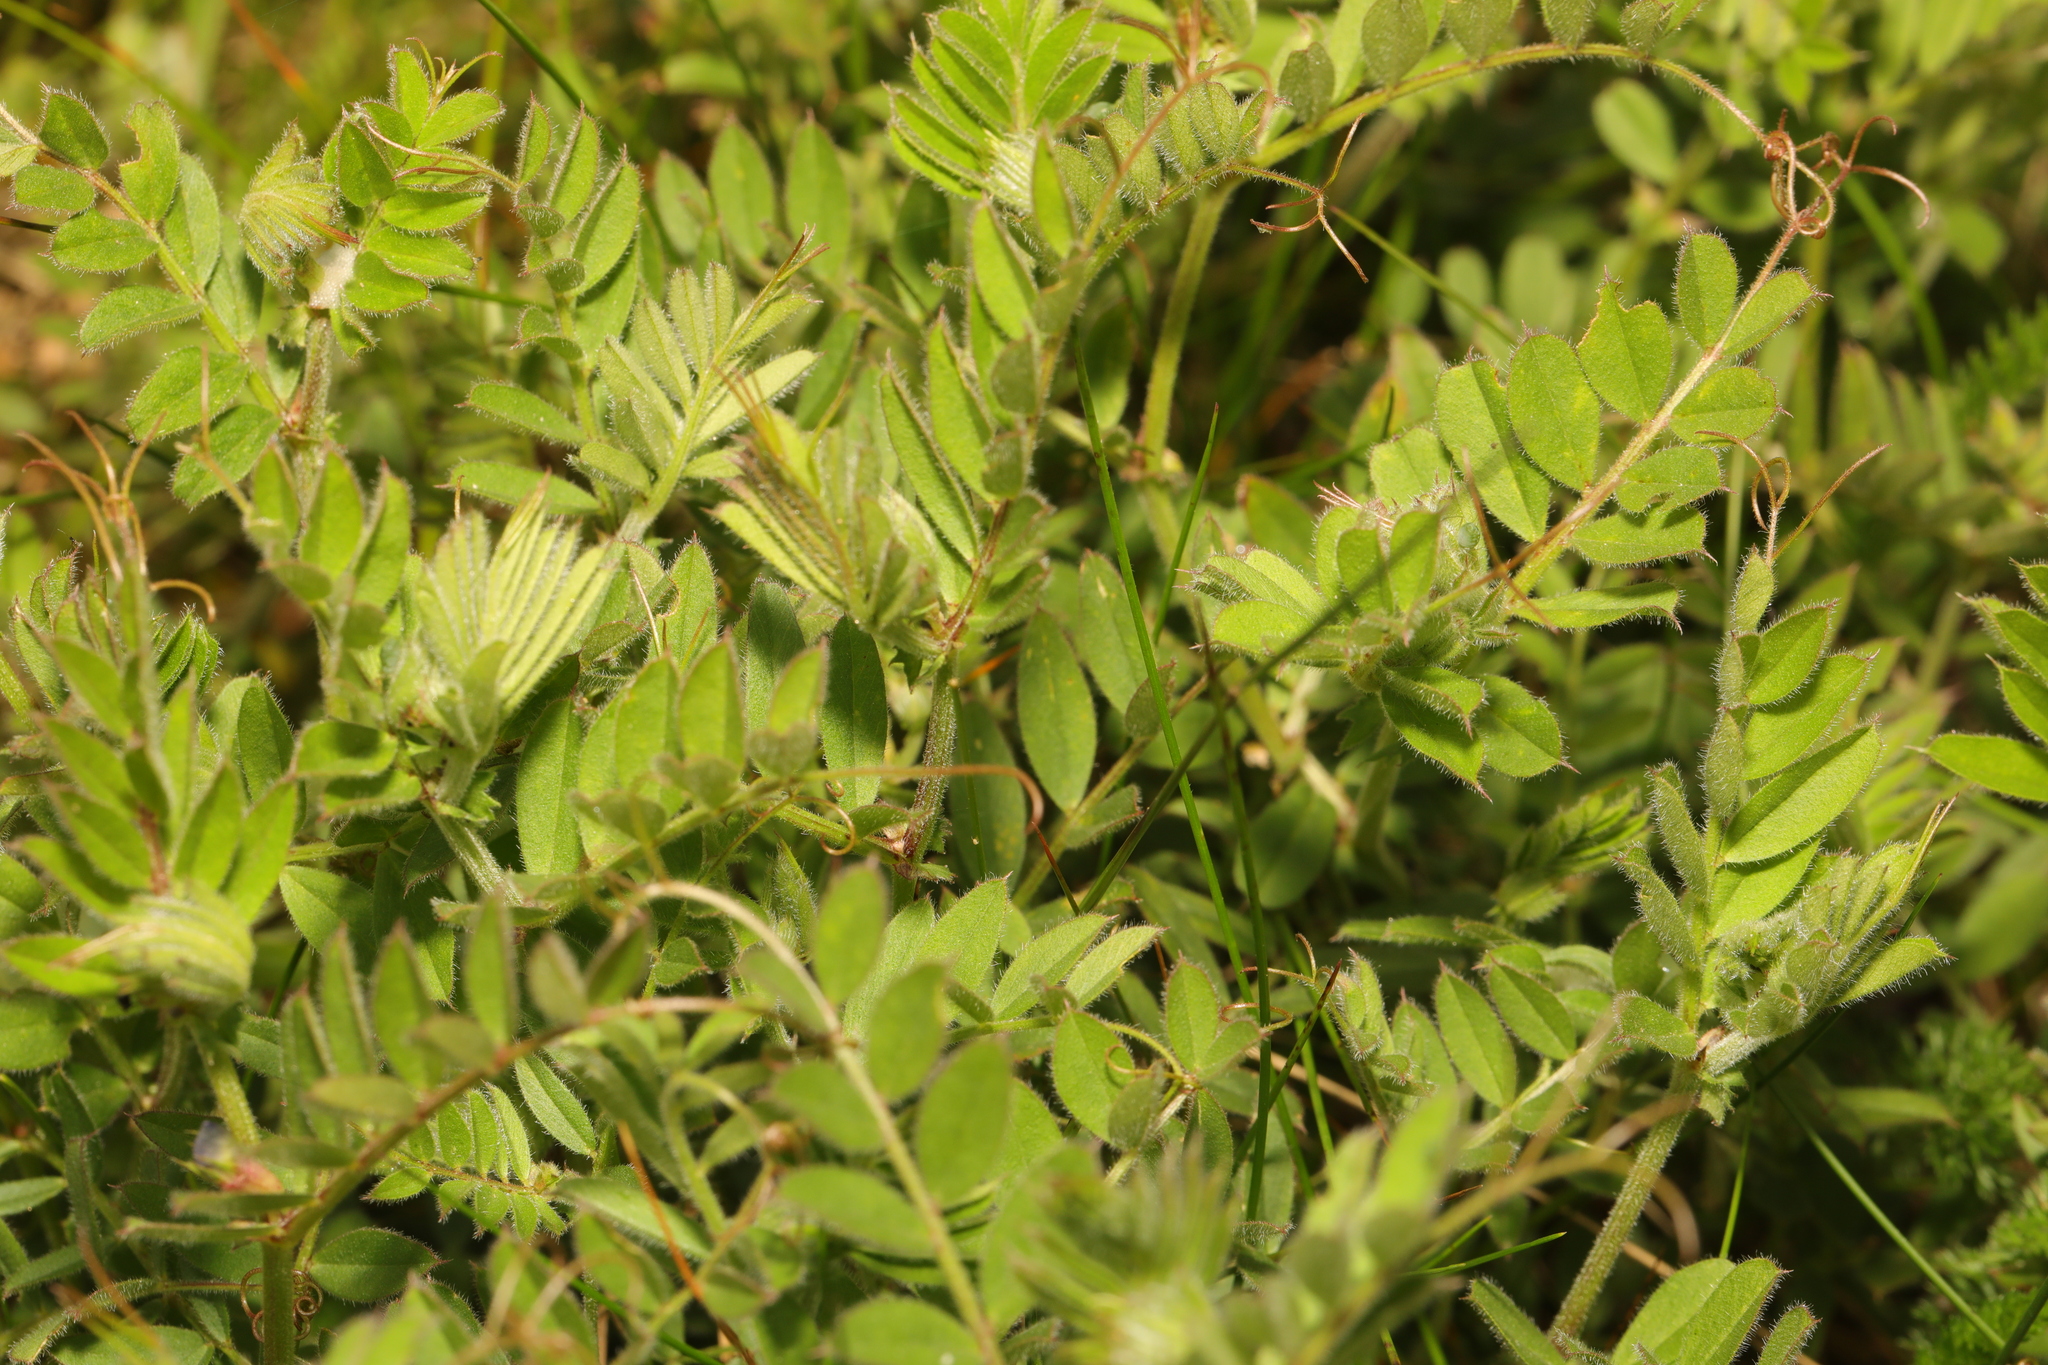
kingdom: Plantae
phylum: Tracheophyta
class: Magnoliopsida
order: Fabales
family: Fabaceae
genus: Vicia
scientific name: Vicia sepium
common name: Bush vetch
